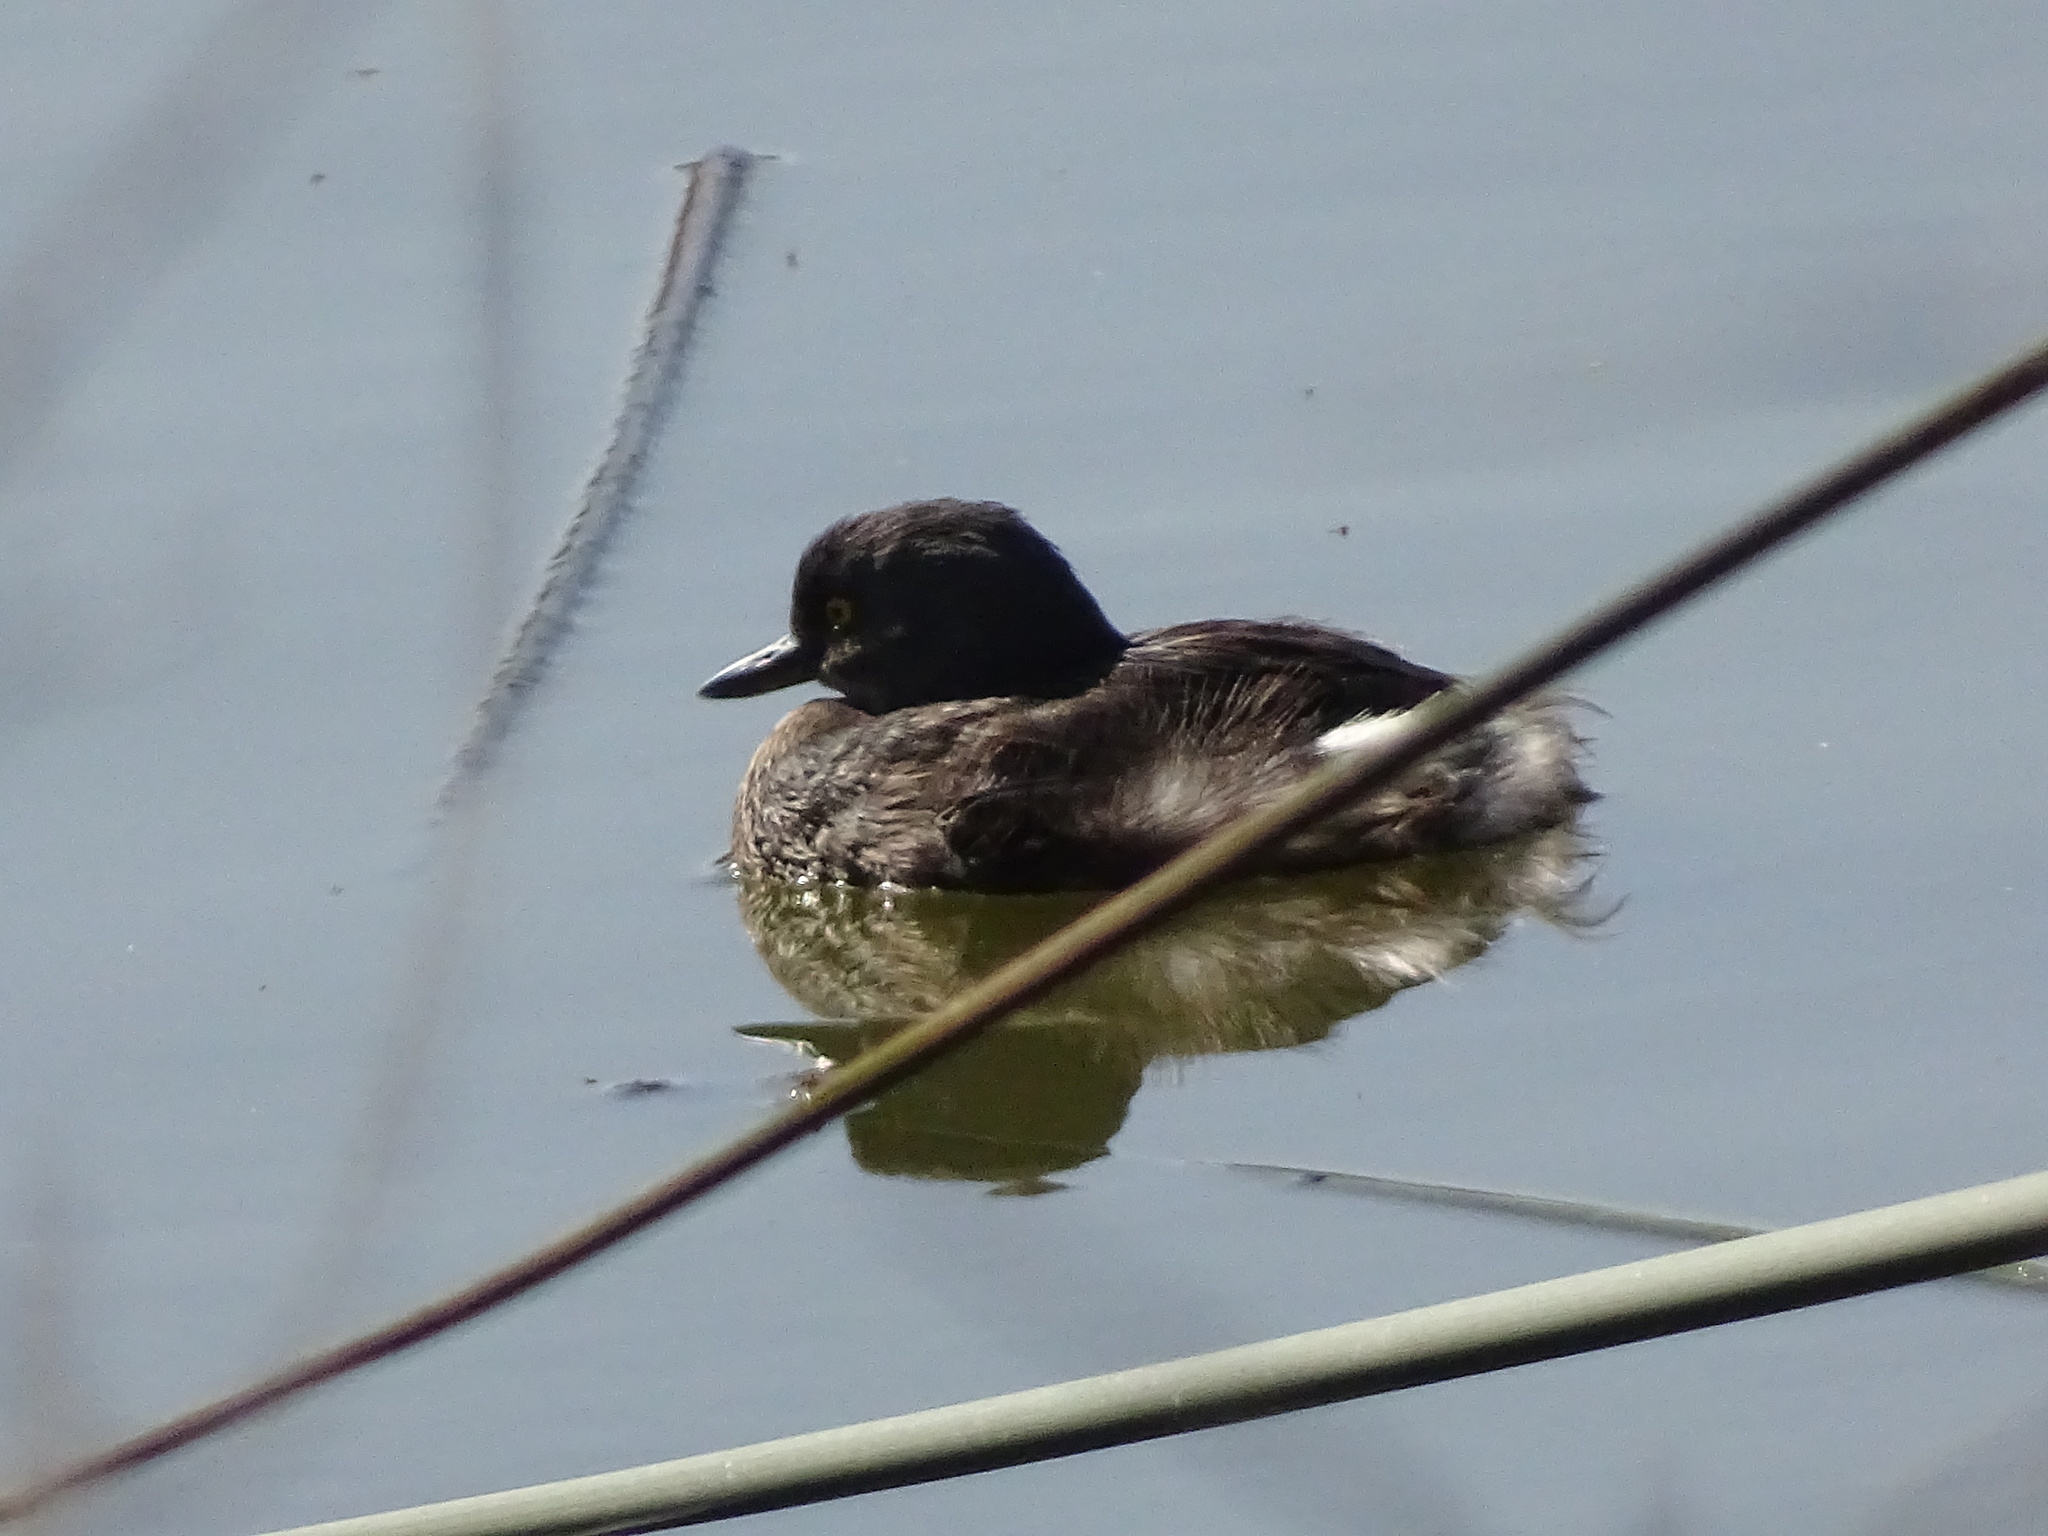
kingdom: Animalia
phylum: Chordata
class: Aves
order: Podicipediformes
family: Podicipedidae
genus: Tachybaptus
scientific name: Tachybaptus dominicus
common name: Least grebe
